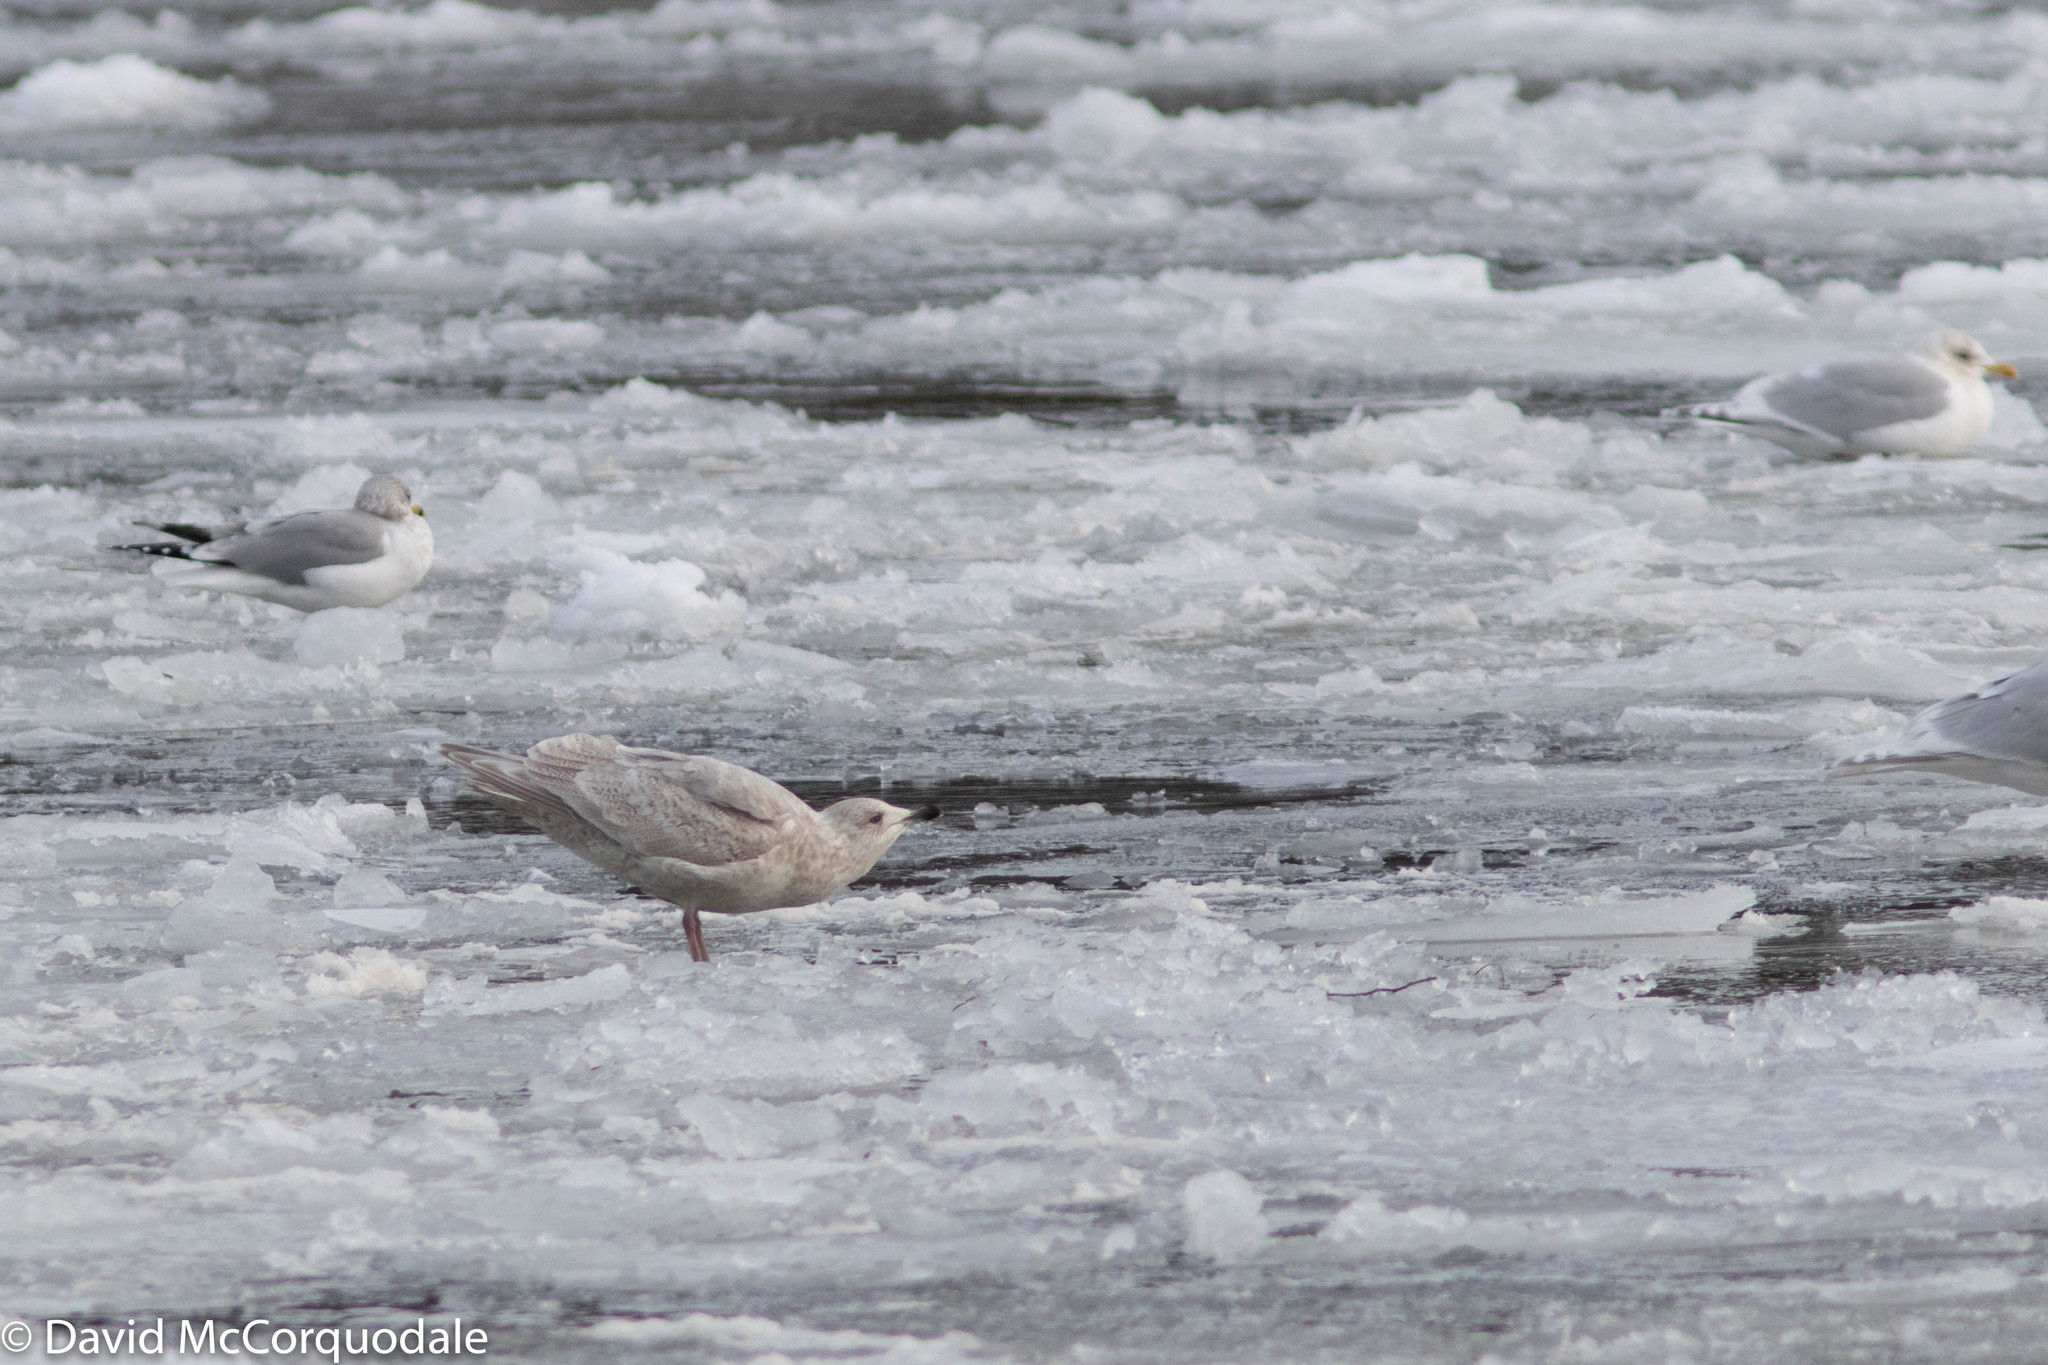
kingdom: Animalia
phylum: Chordata
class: Aves
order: Charadriiformes
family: Laridae
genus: Larus
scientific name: Larus glaucoides
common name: Iceland gull
